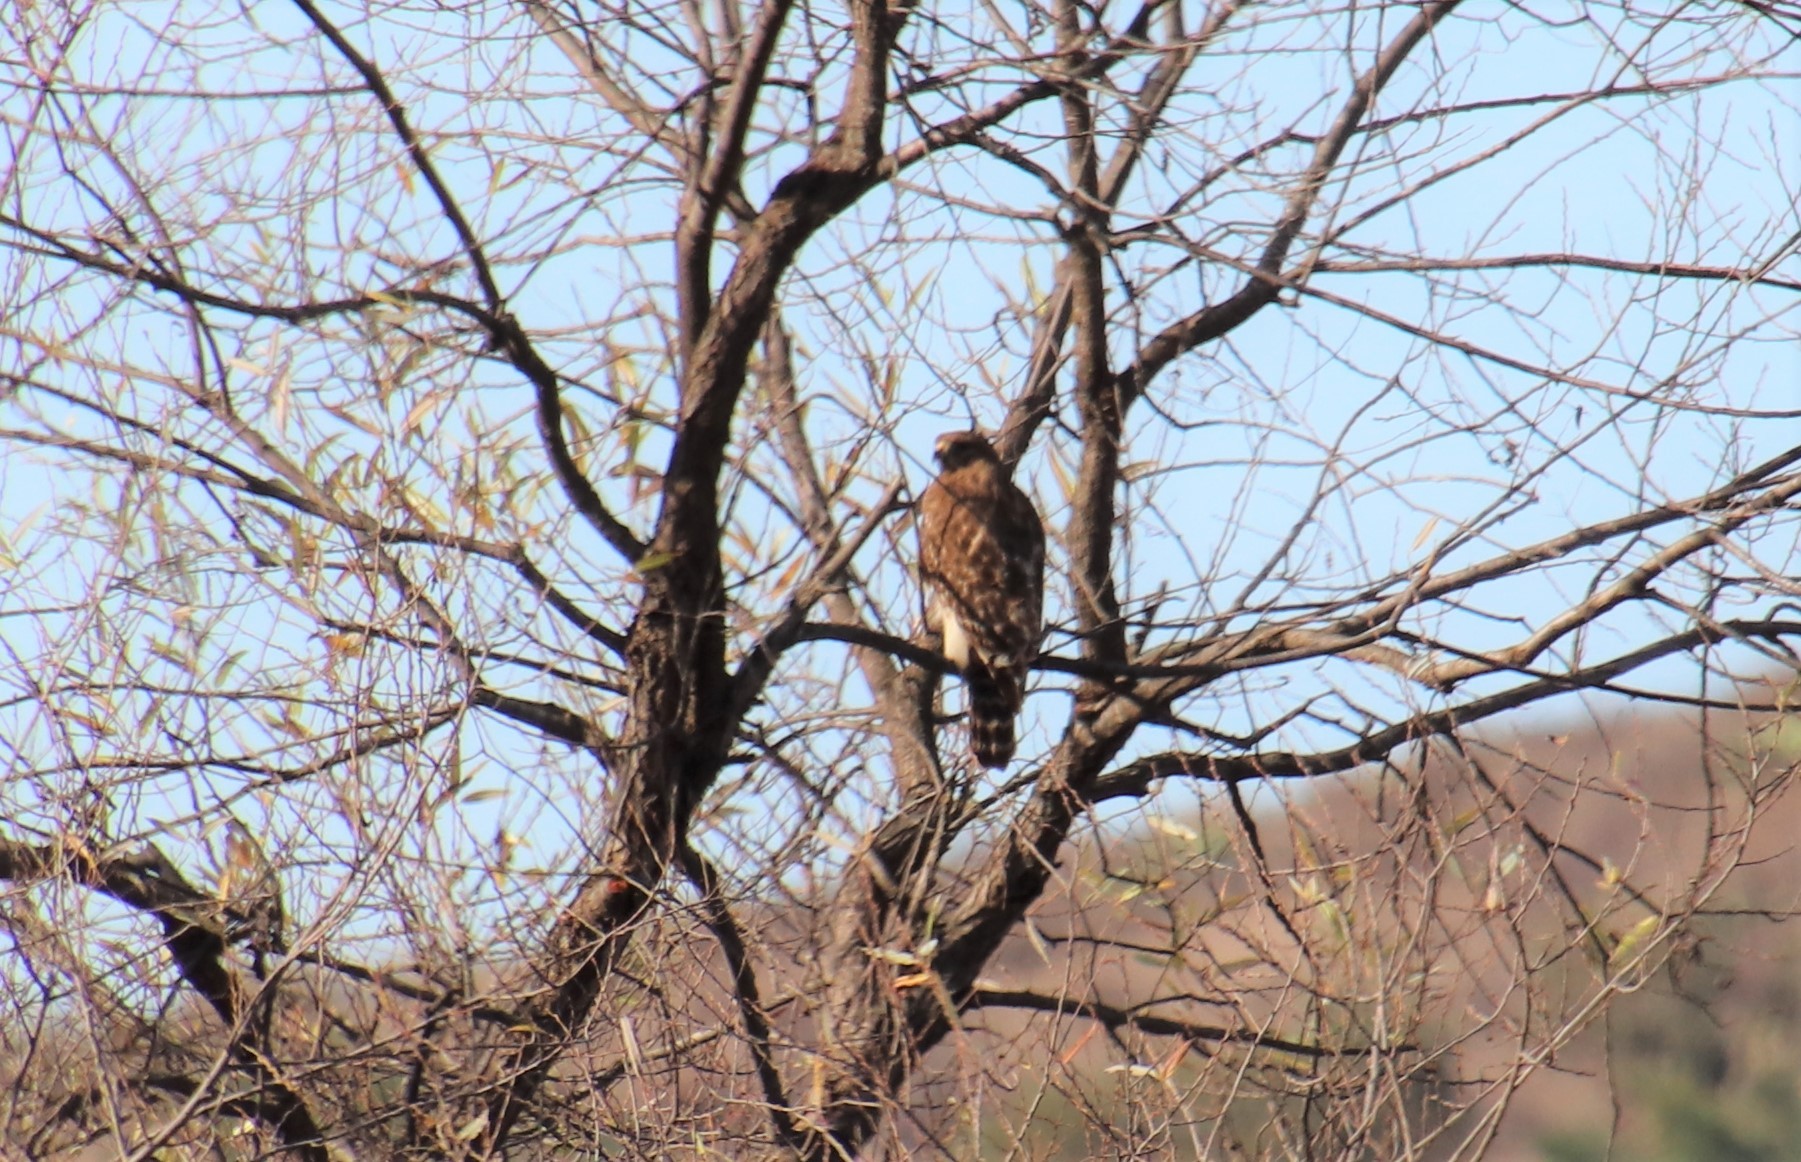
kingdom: Animalia
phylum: Chordata
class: Aves
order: Accipitriformes
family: Accipitridae
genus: Buteo
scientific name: Buteo lineatus
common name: Red-shouldered hawk
